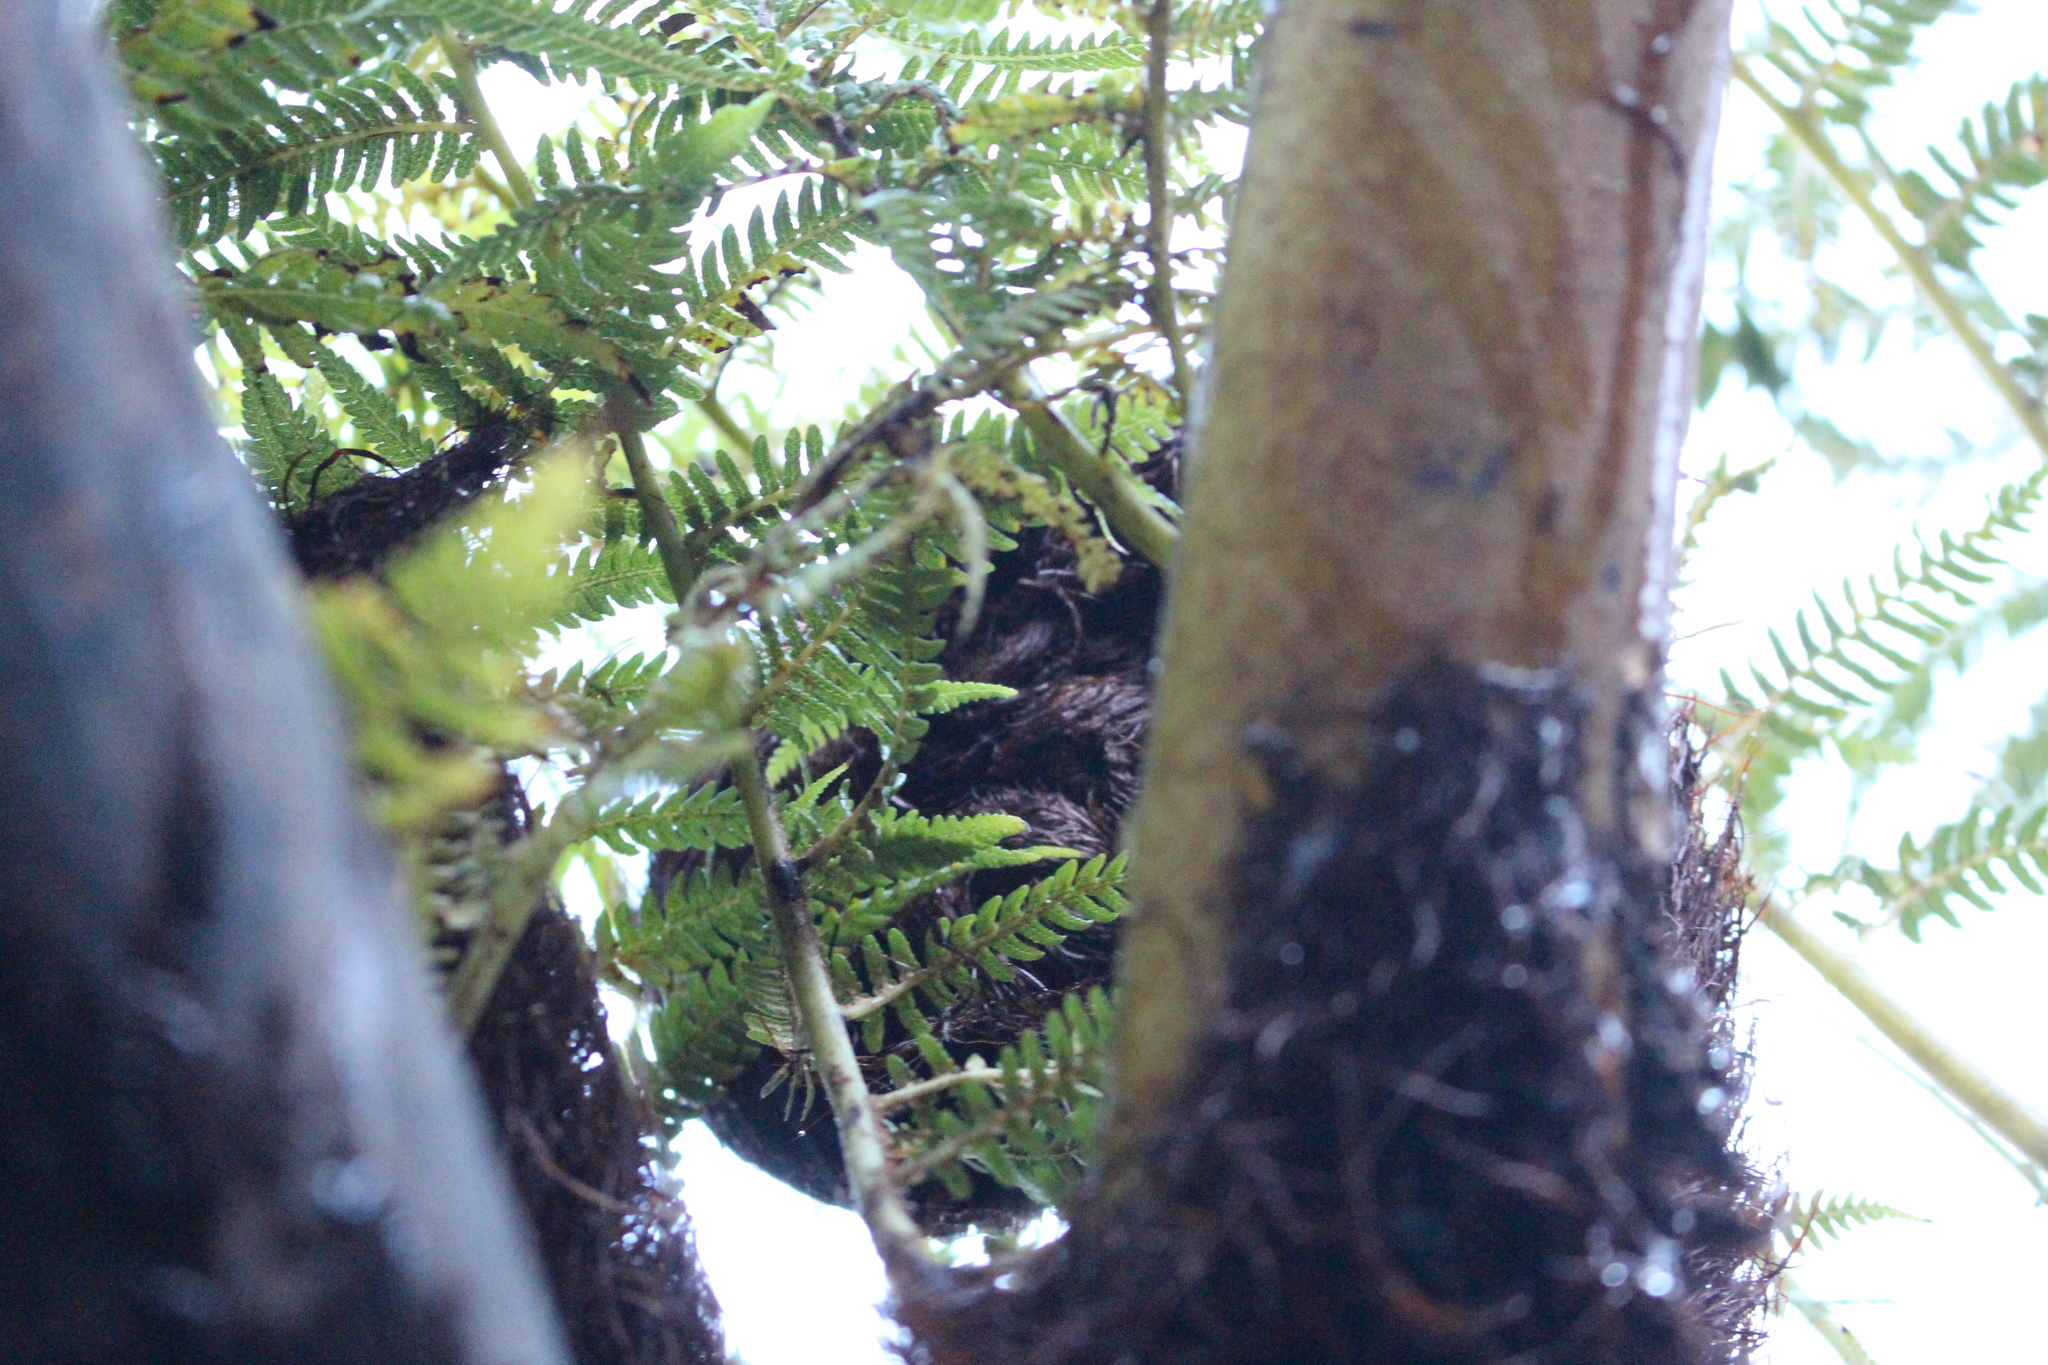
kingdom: Plantae
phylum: Tracheophyta
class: Polypodiopsida
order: Cyatheales
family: Cyatheaceae
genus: Sphaeropteris
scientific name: Sphaeropteris medullaris
